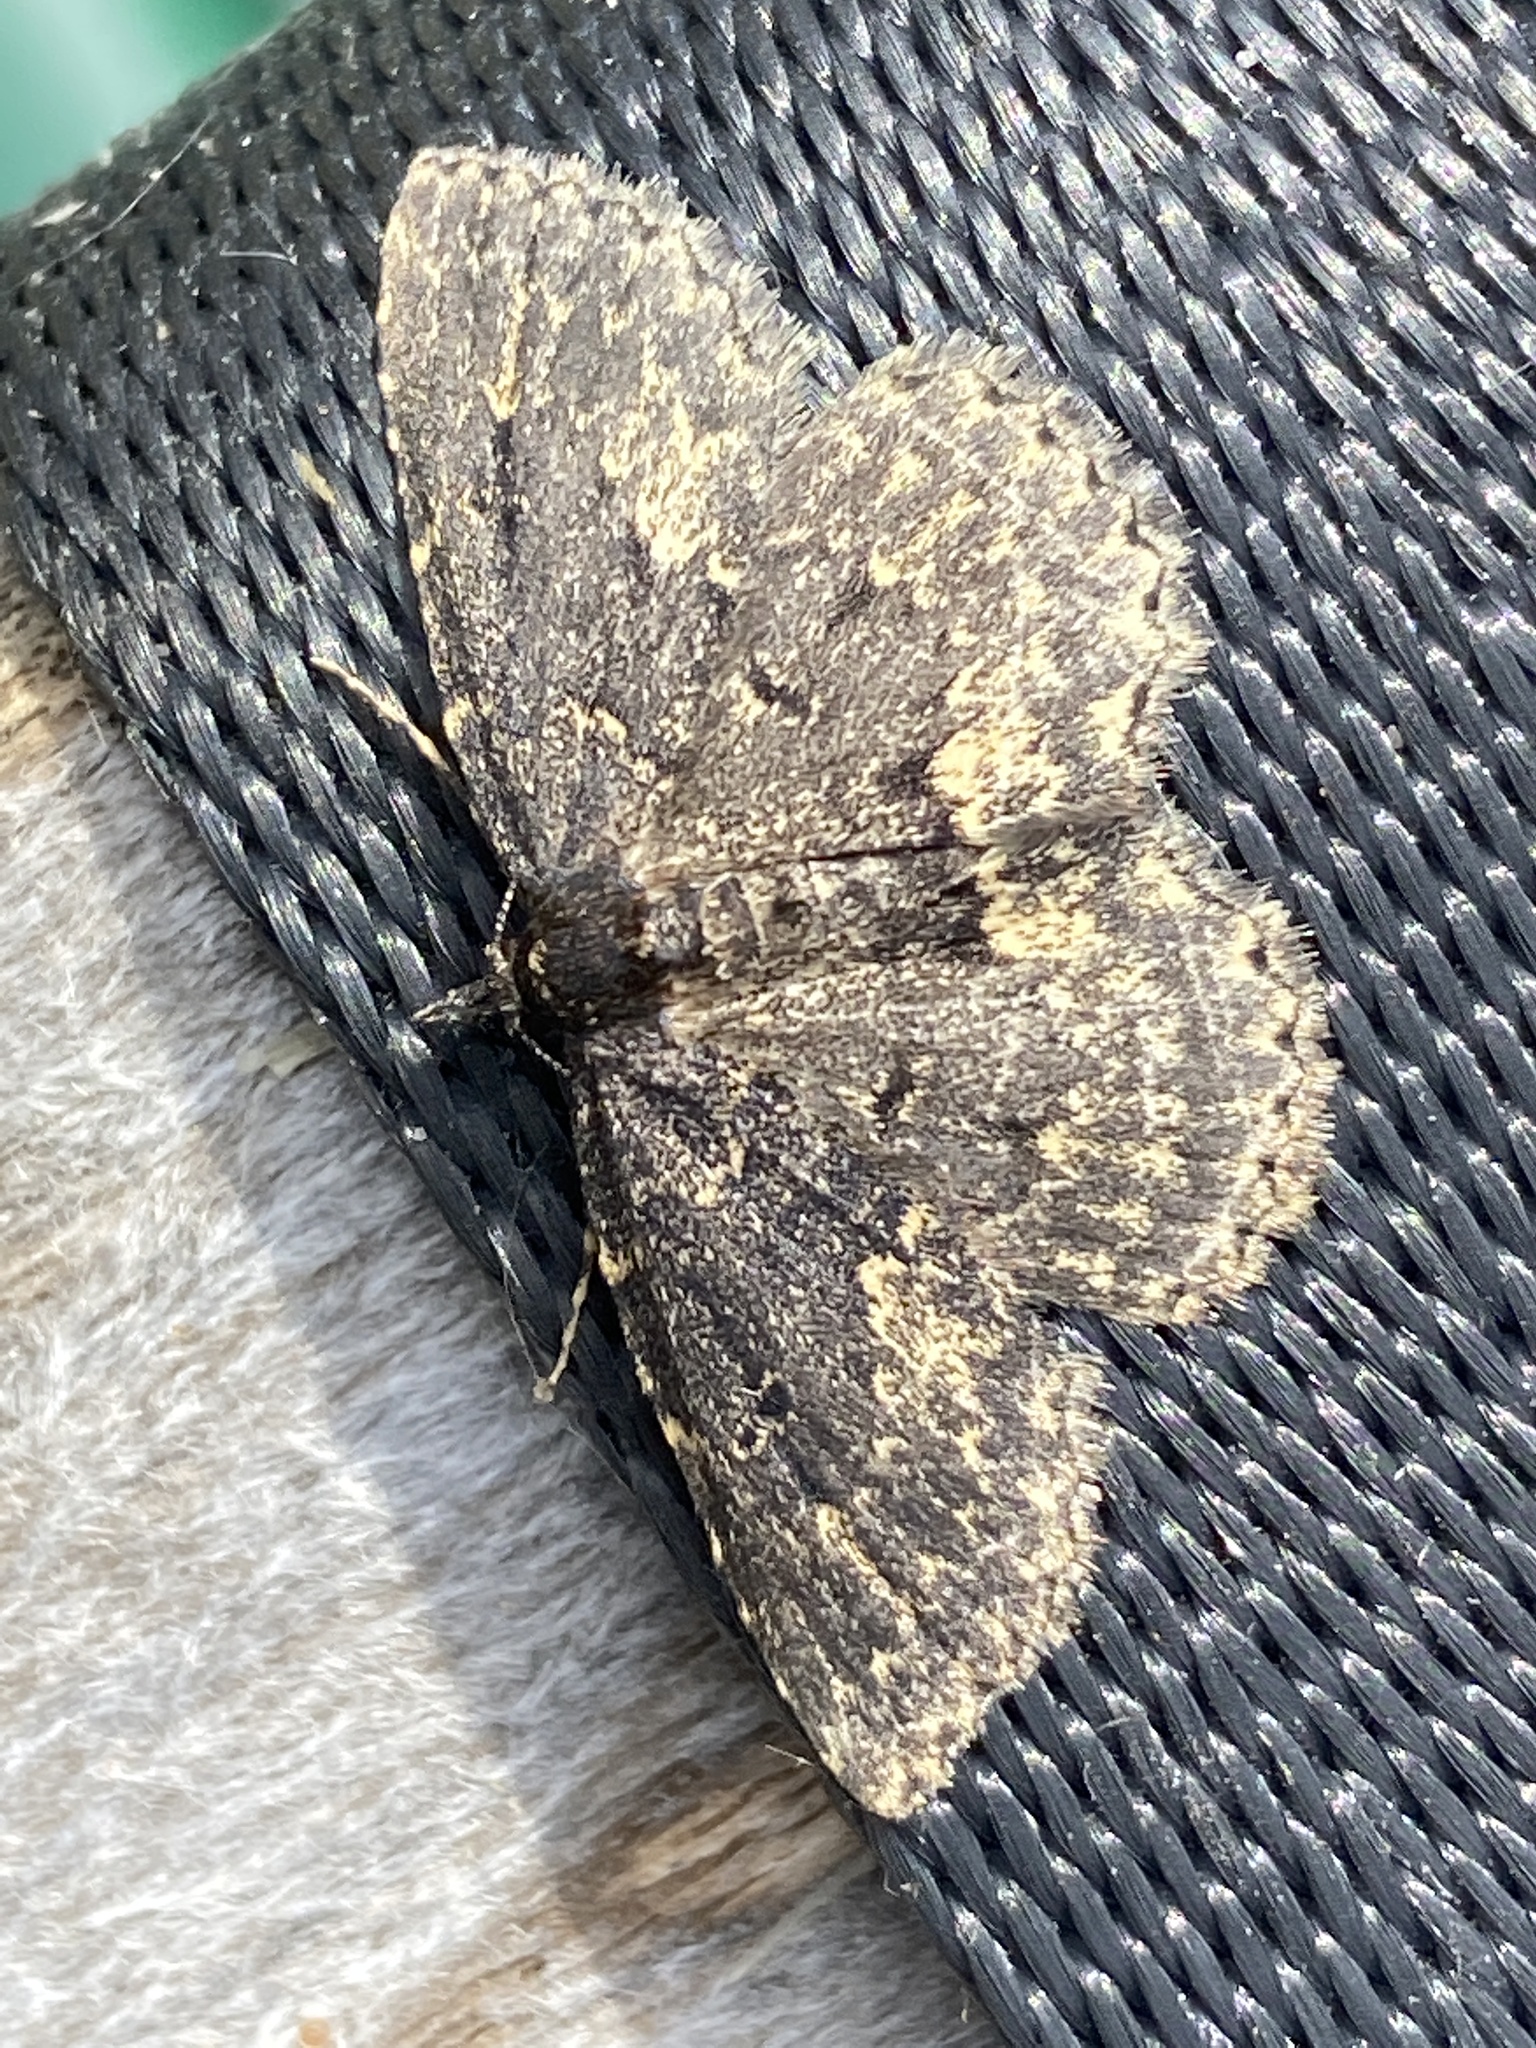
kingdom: Animalia
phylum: Arthropoda
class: Insecta
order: Lepidoptera
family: Erebidae
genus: Parascotia
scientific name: Parascotia fuliginaria
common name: Waved black
